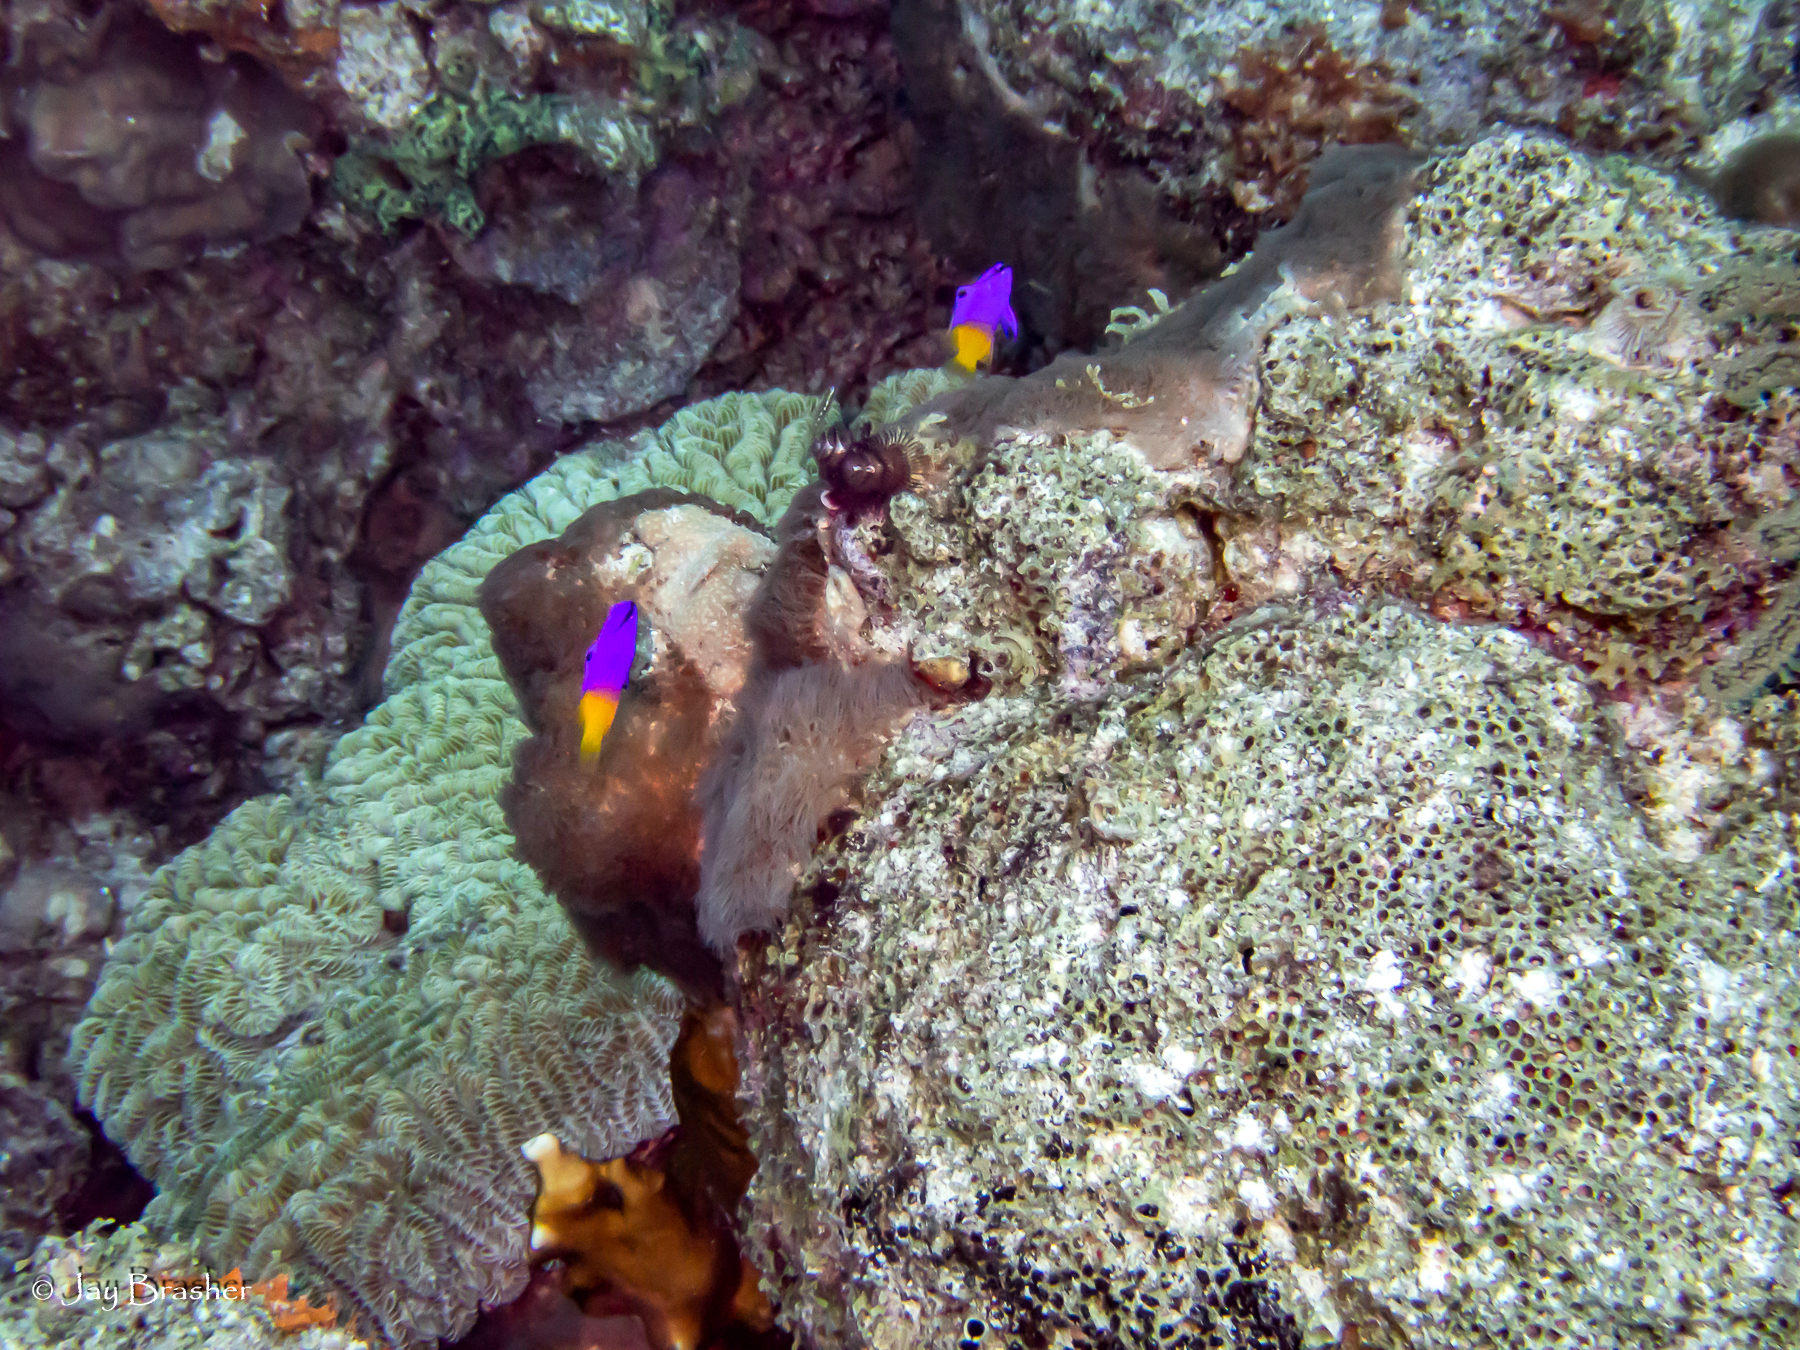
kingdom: Animalia
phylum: Chordata
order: Perciformes
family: Grammatidae
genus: Gramma
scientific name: Gramma loreto
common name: Fairy basslet
